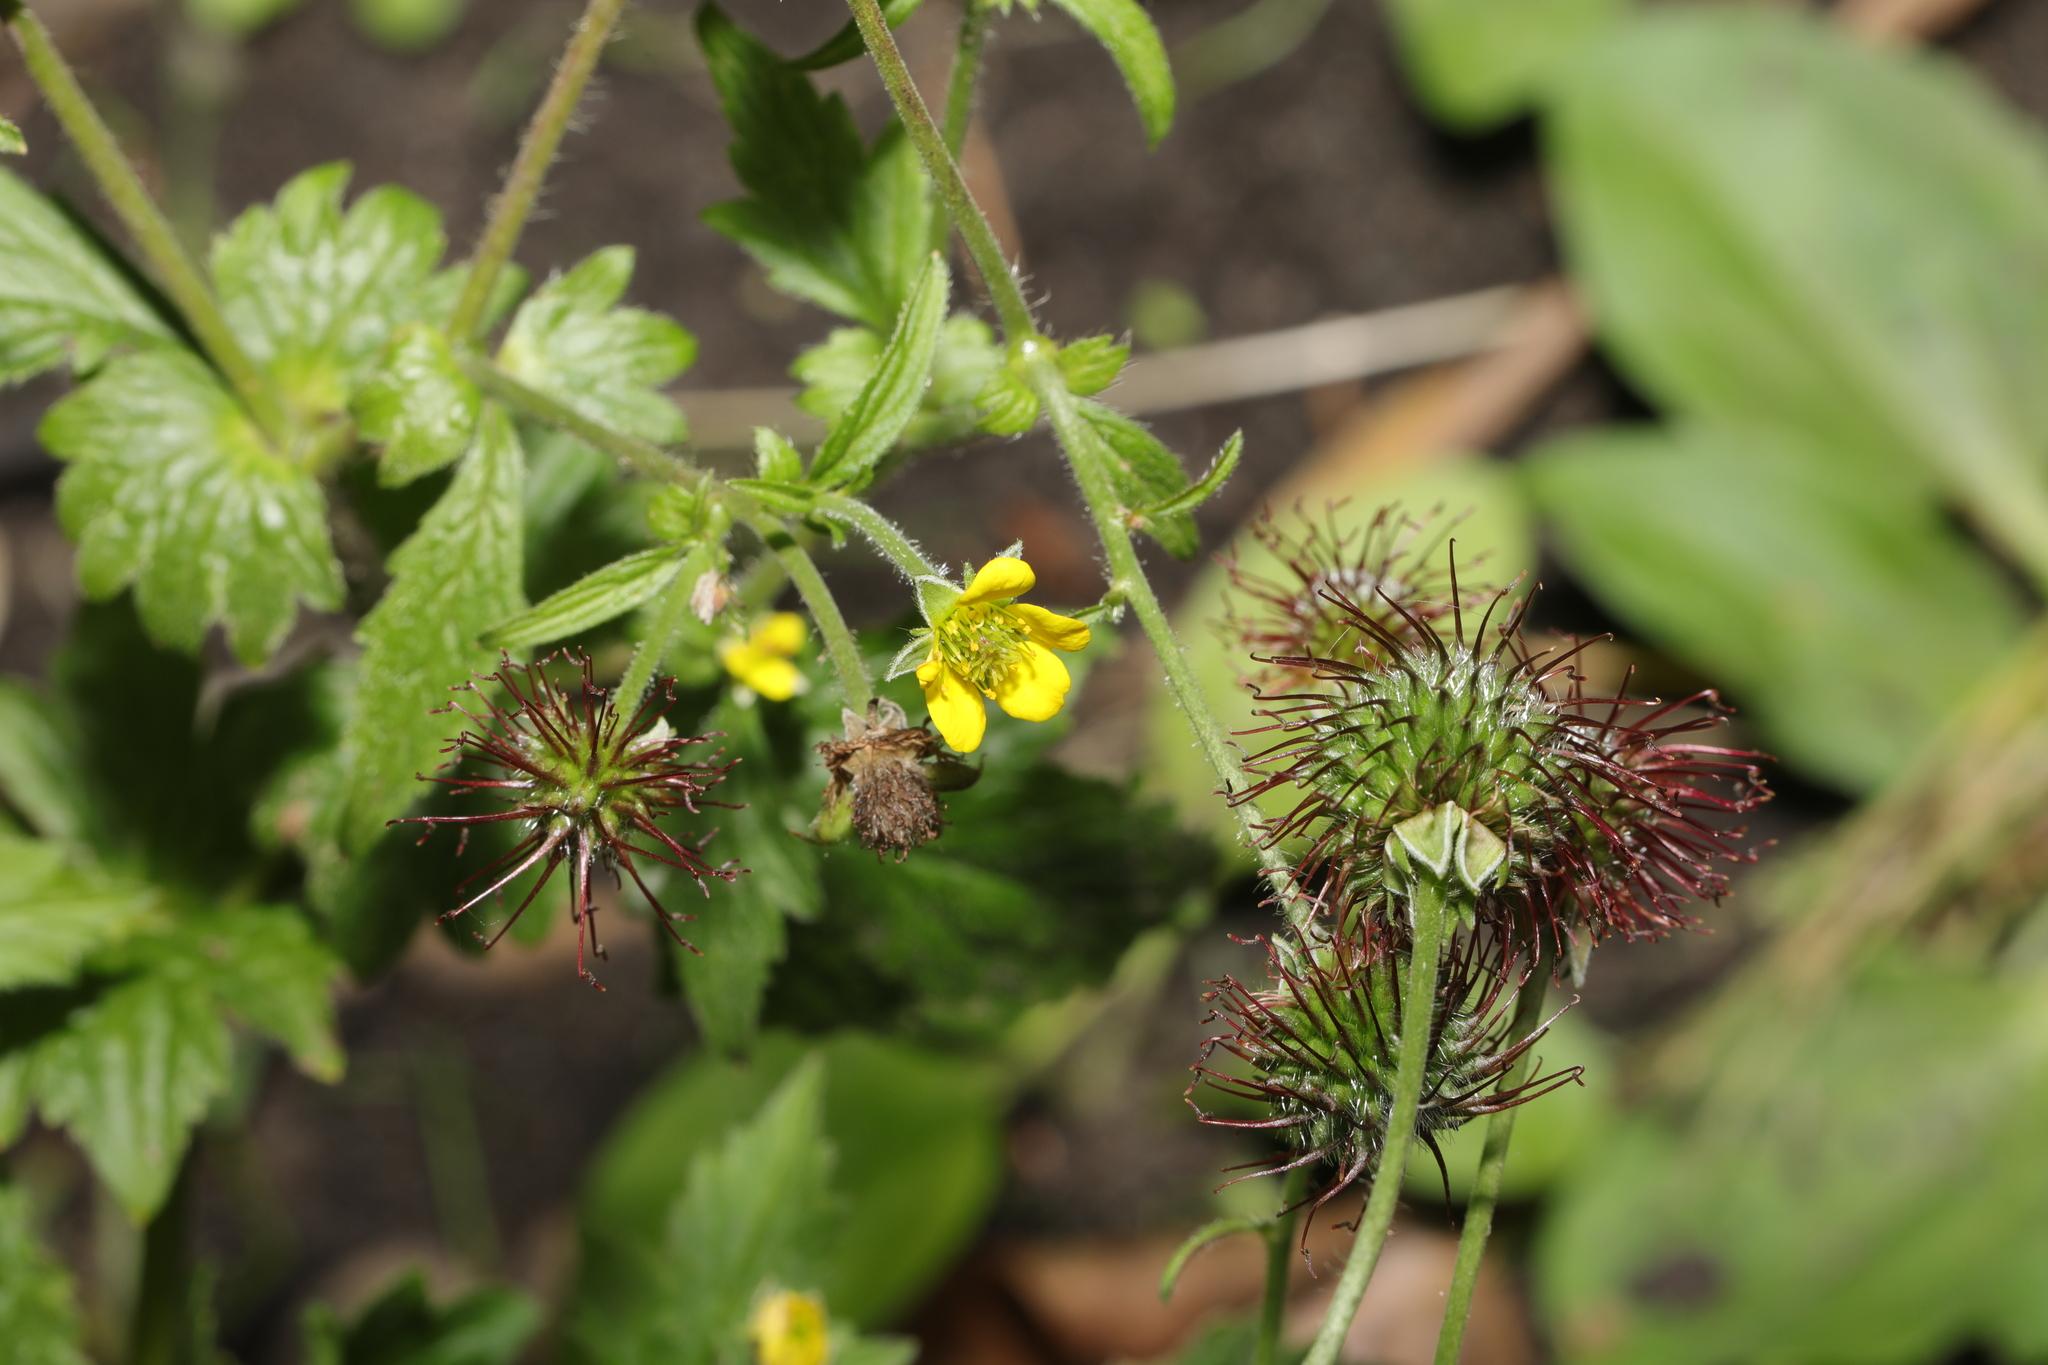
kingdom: Plantae
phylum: Tracheophyta
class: Magnoliopsida
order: Rosales
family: Rosaceae
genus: Geum
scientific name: Geum urbanum
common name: Wood avens
